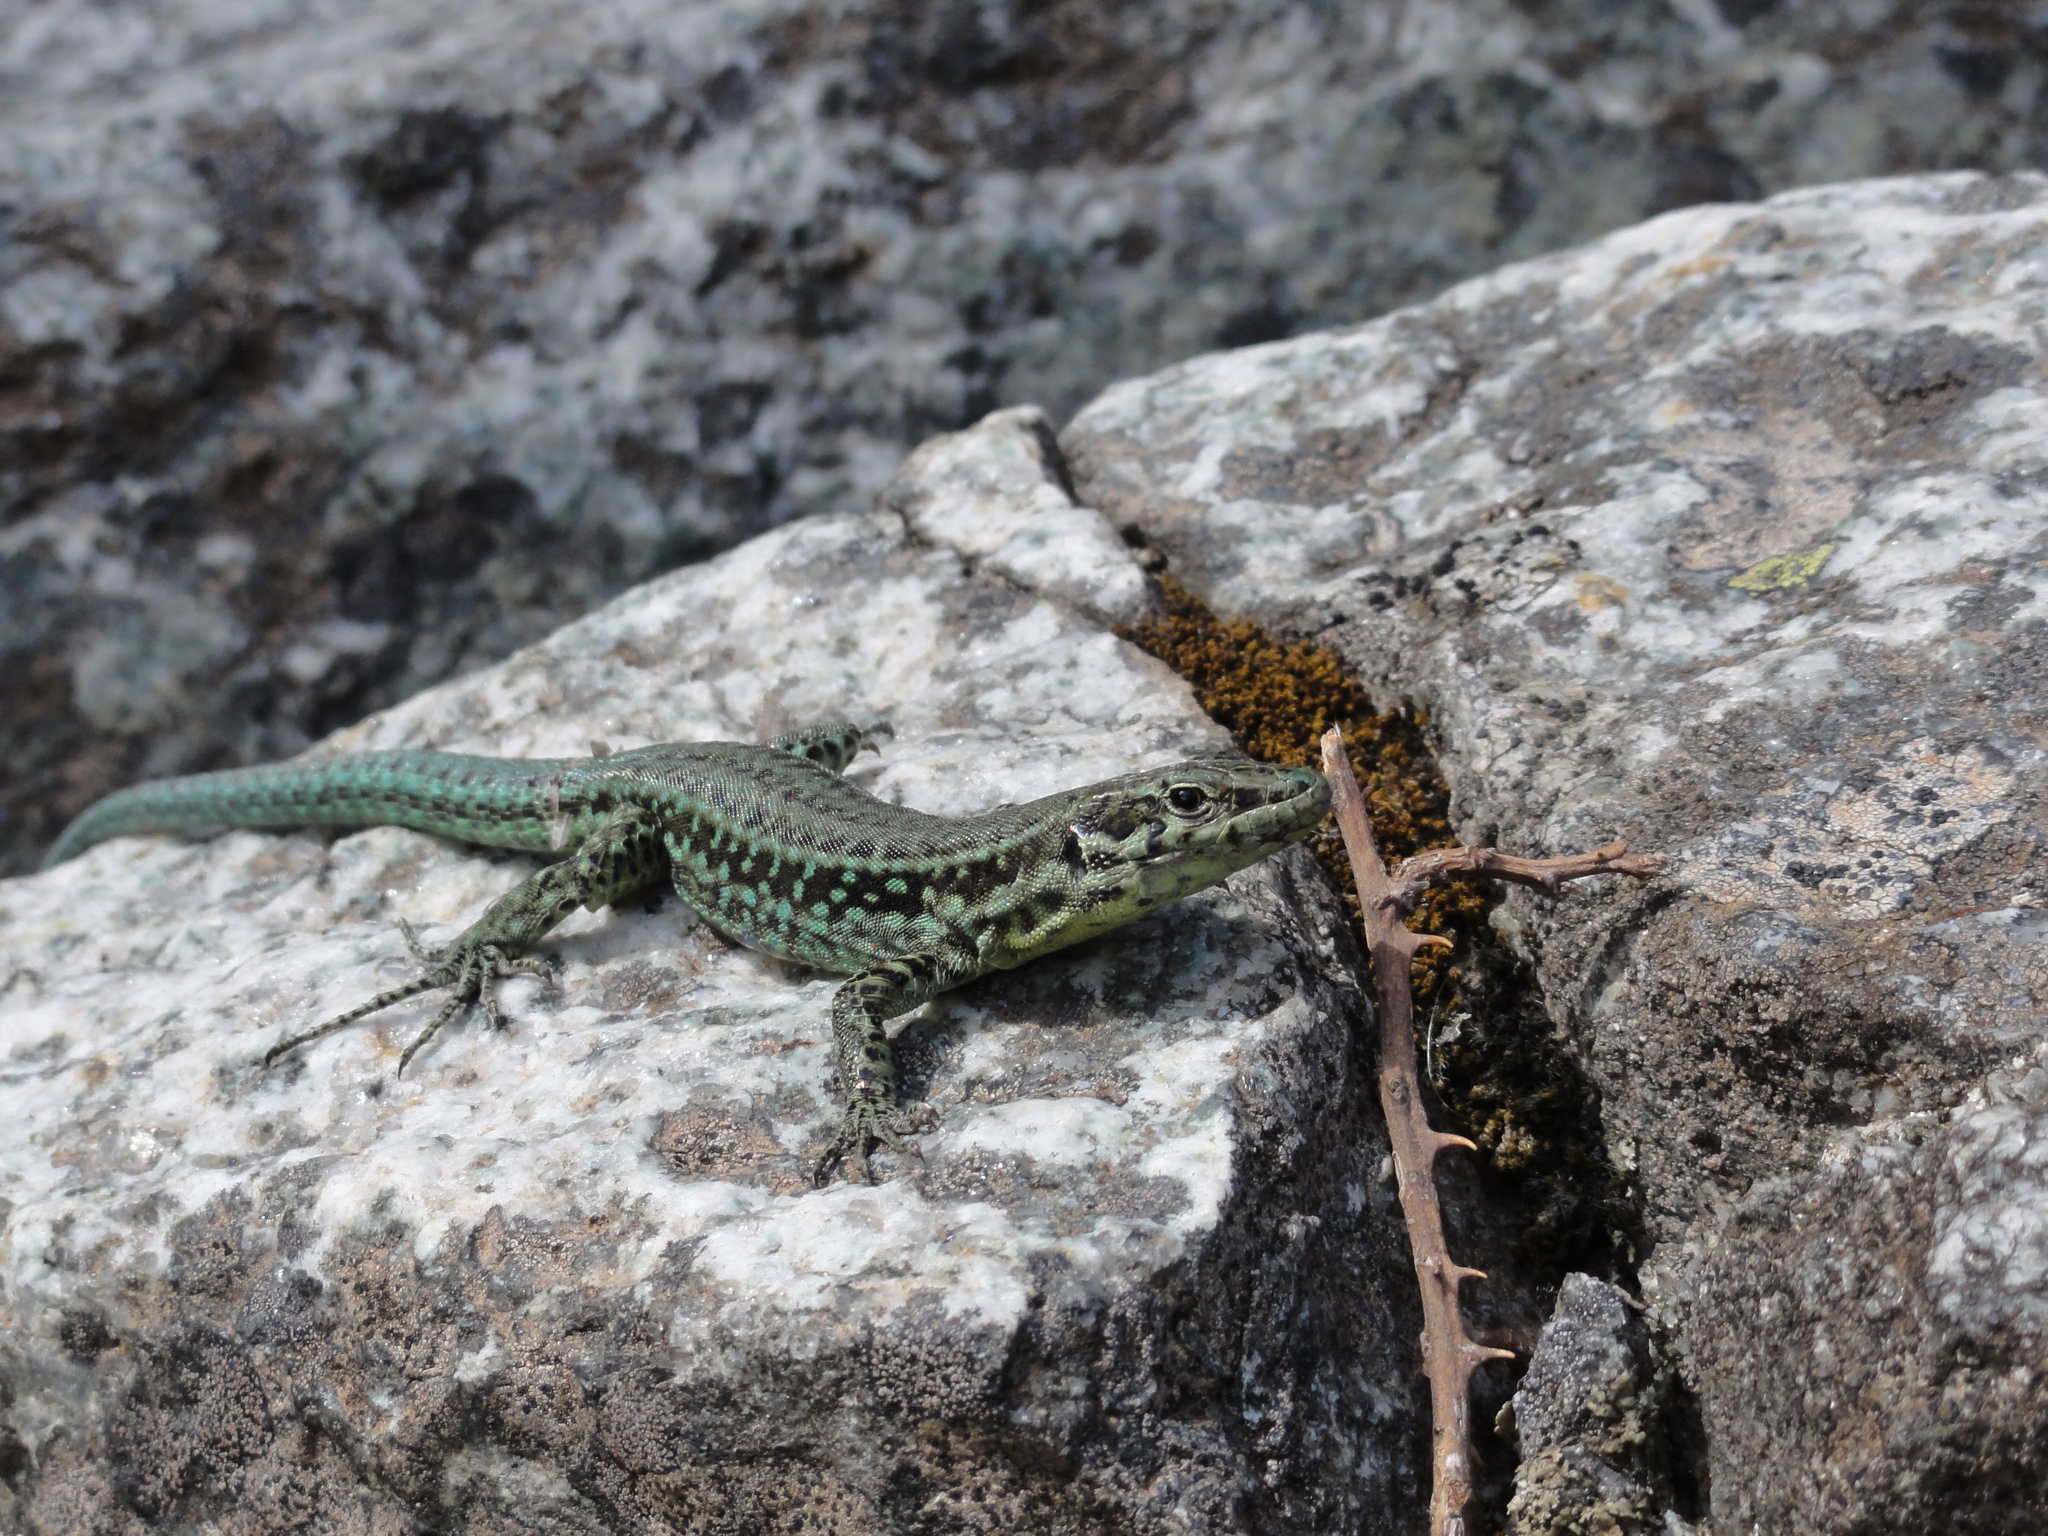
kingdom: Animalia
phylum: Chordata
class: Squamata
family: Lacertidae
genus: Podarcis
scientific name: Podarcis tiliguerta
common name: Tyrrhenian wall lizard
